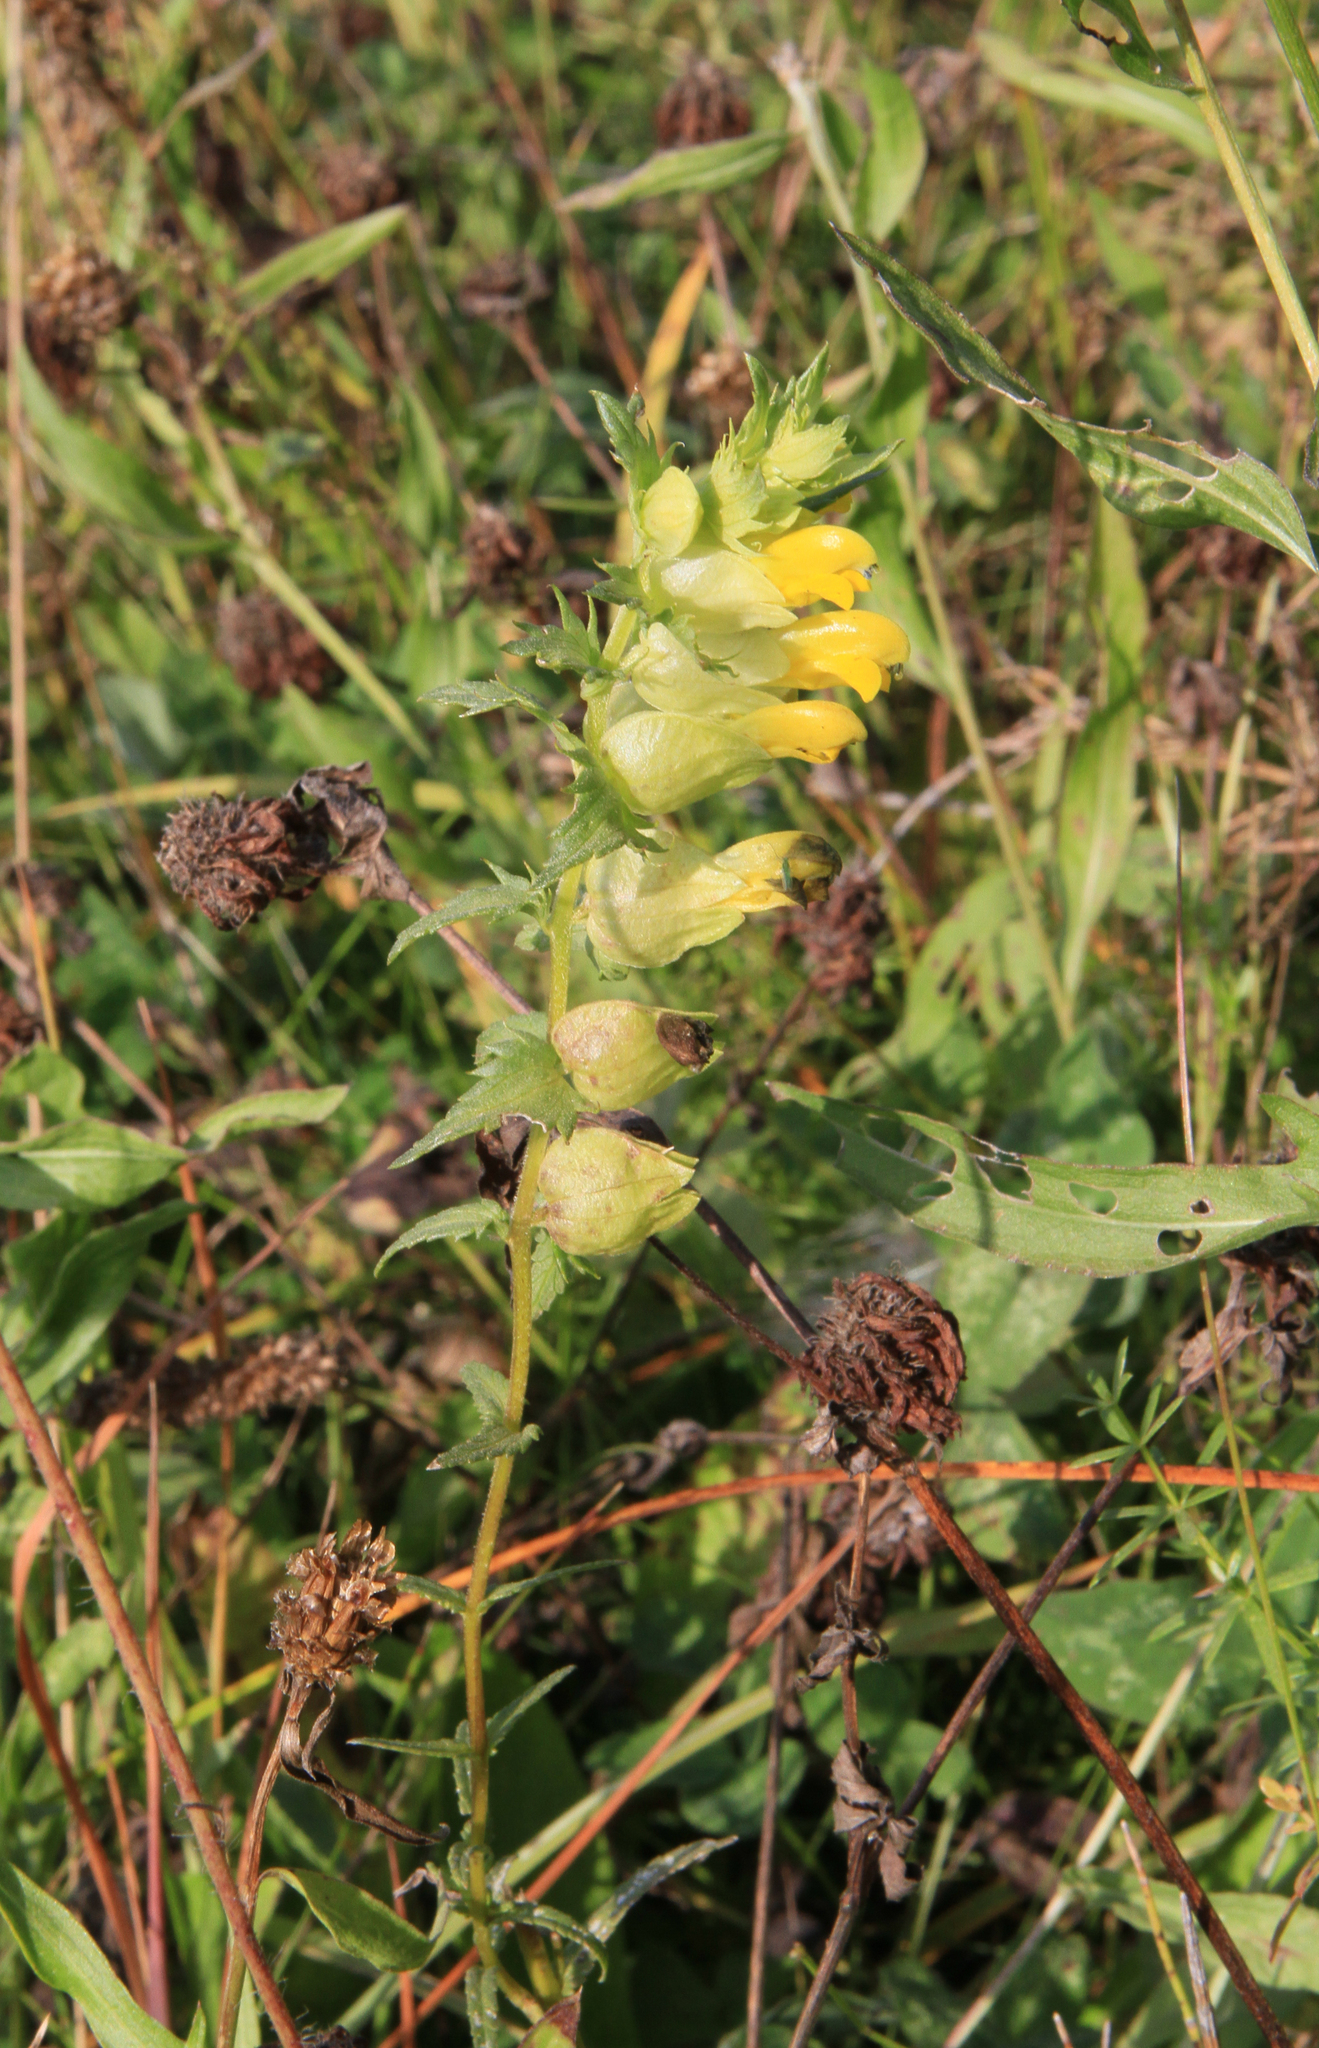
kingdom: Plantae
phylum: Tracheophyta
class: Magnoliopsida
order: Lamiales
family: Orobanchaceae
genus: Rhinanthus
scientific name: Rhinanthus serotinus
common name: Late-flowering yellow rattle
